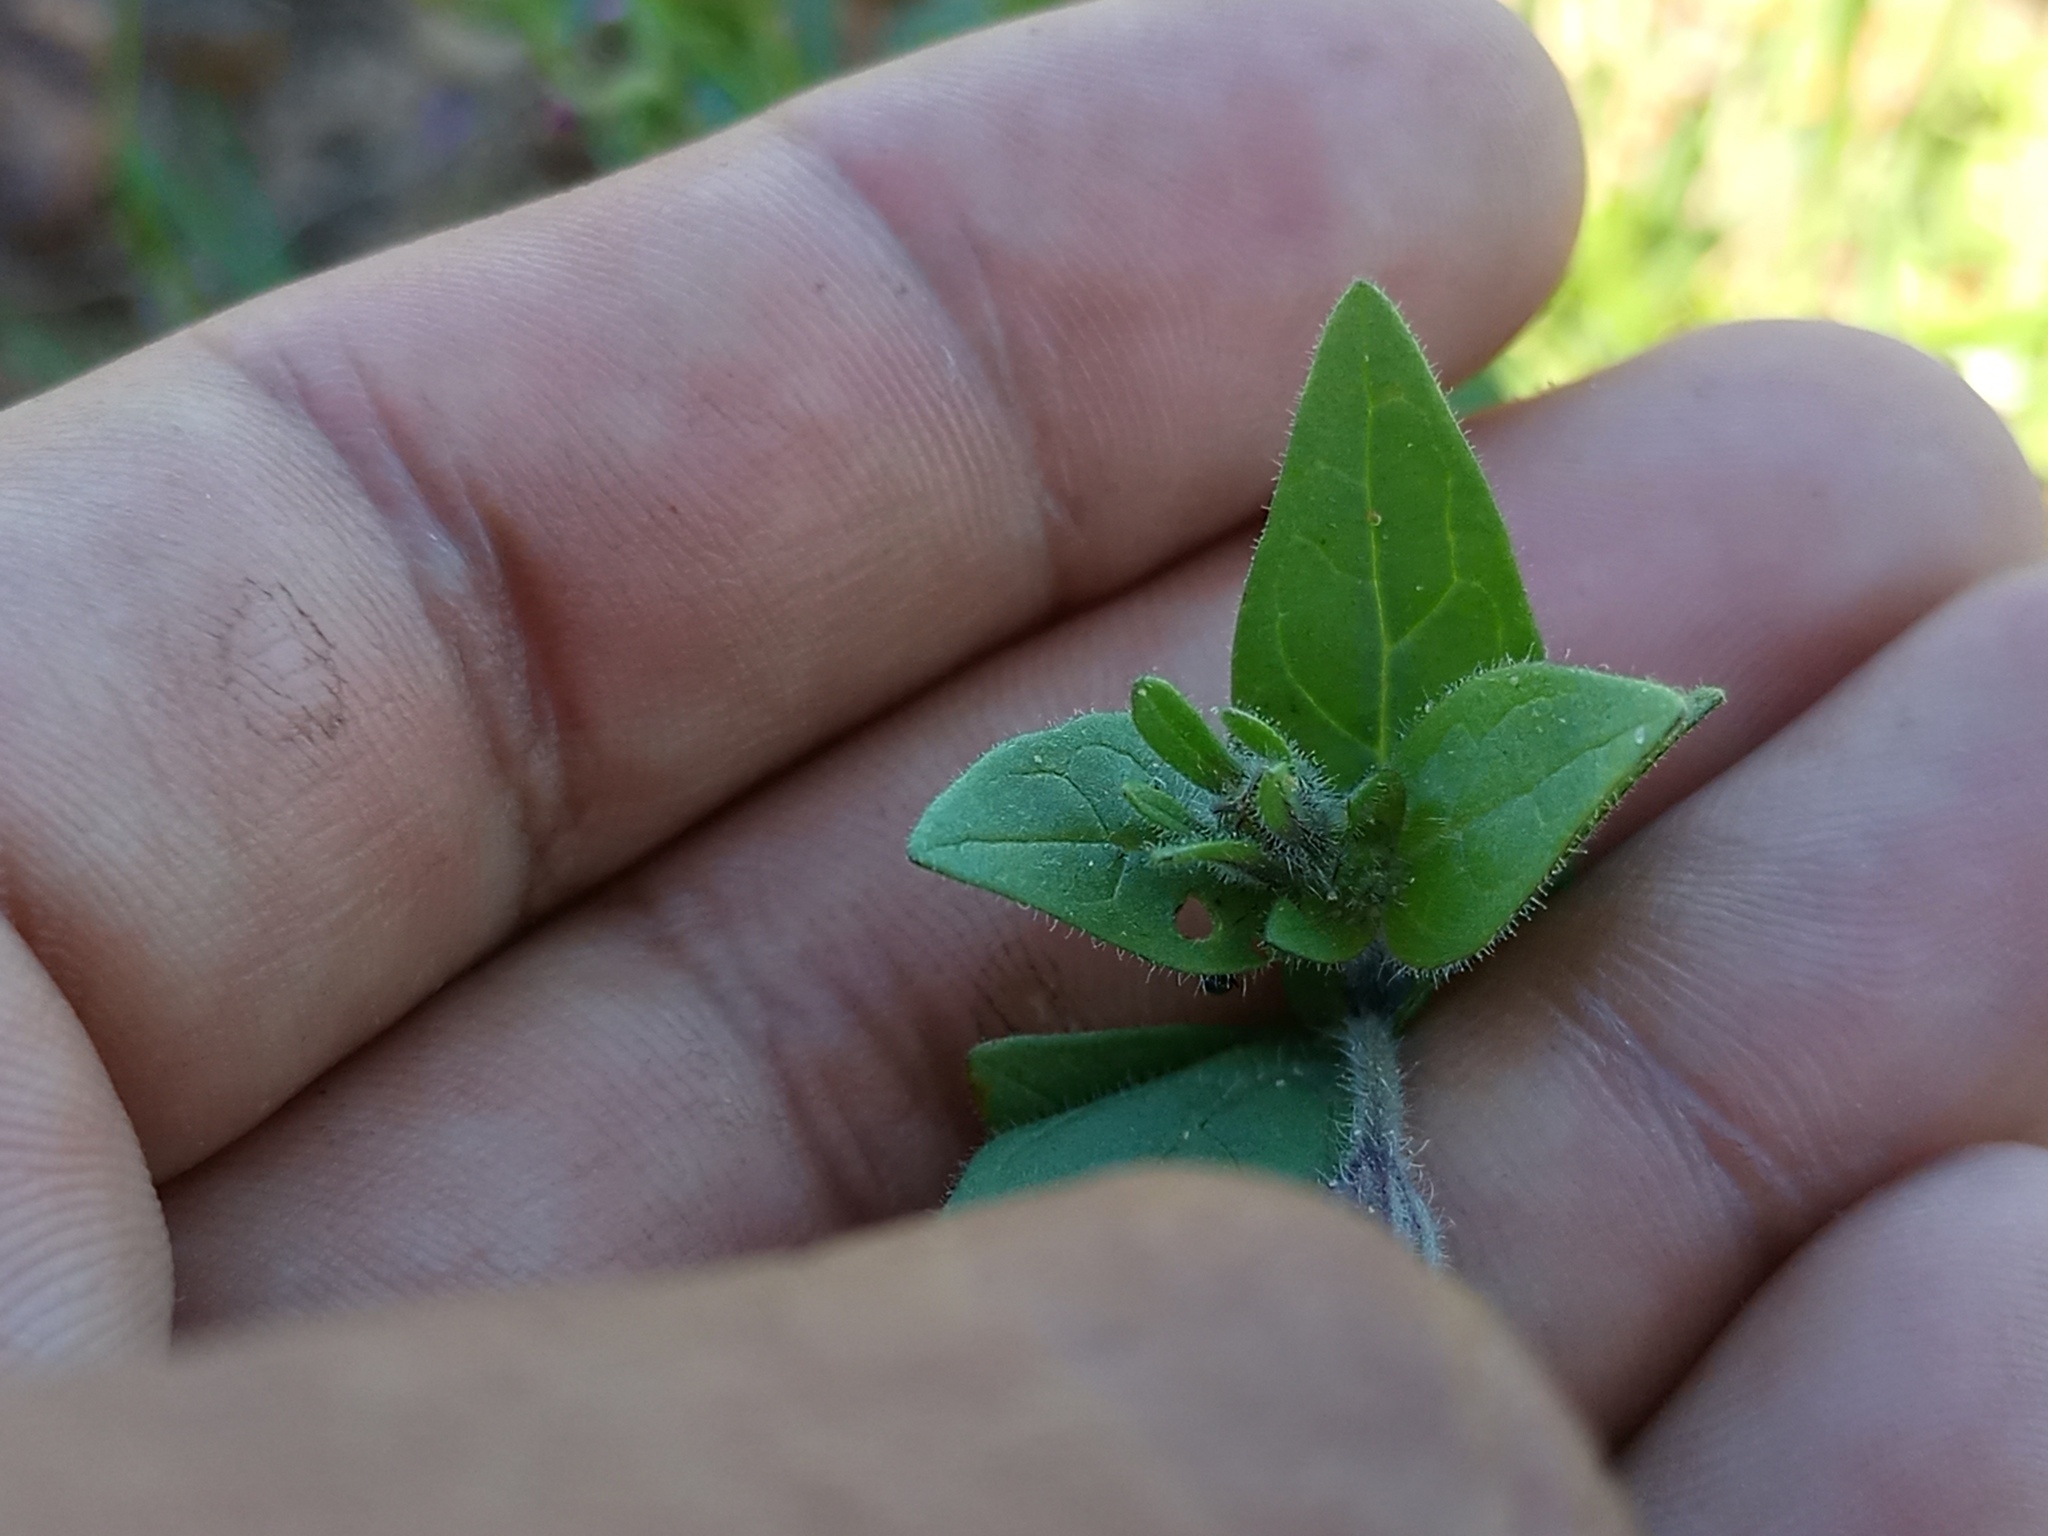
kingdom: Plantae
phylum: Tracheophyta
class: Magnoliopsida
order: Solanales
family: Solanaceae
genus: Petunia
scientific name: Petunia integrifolia
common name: Violet-flower petunia
